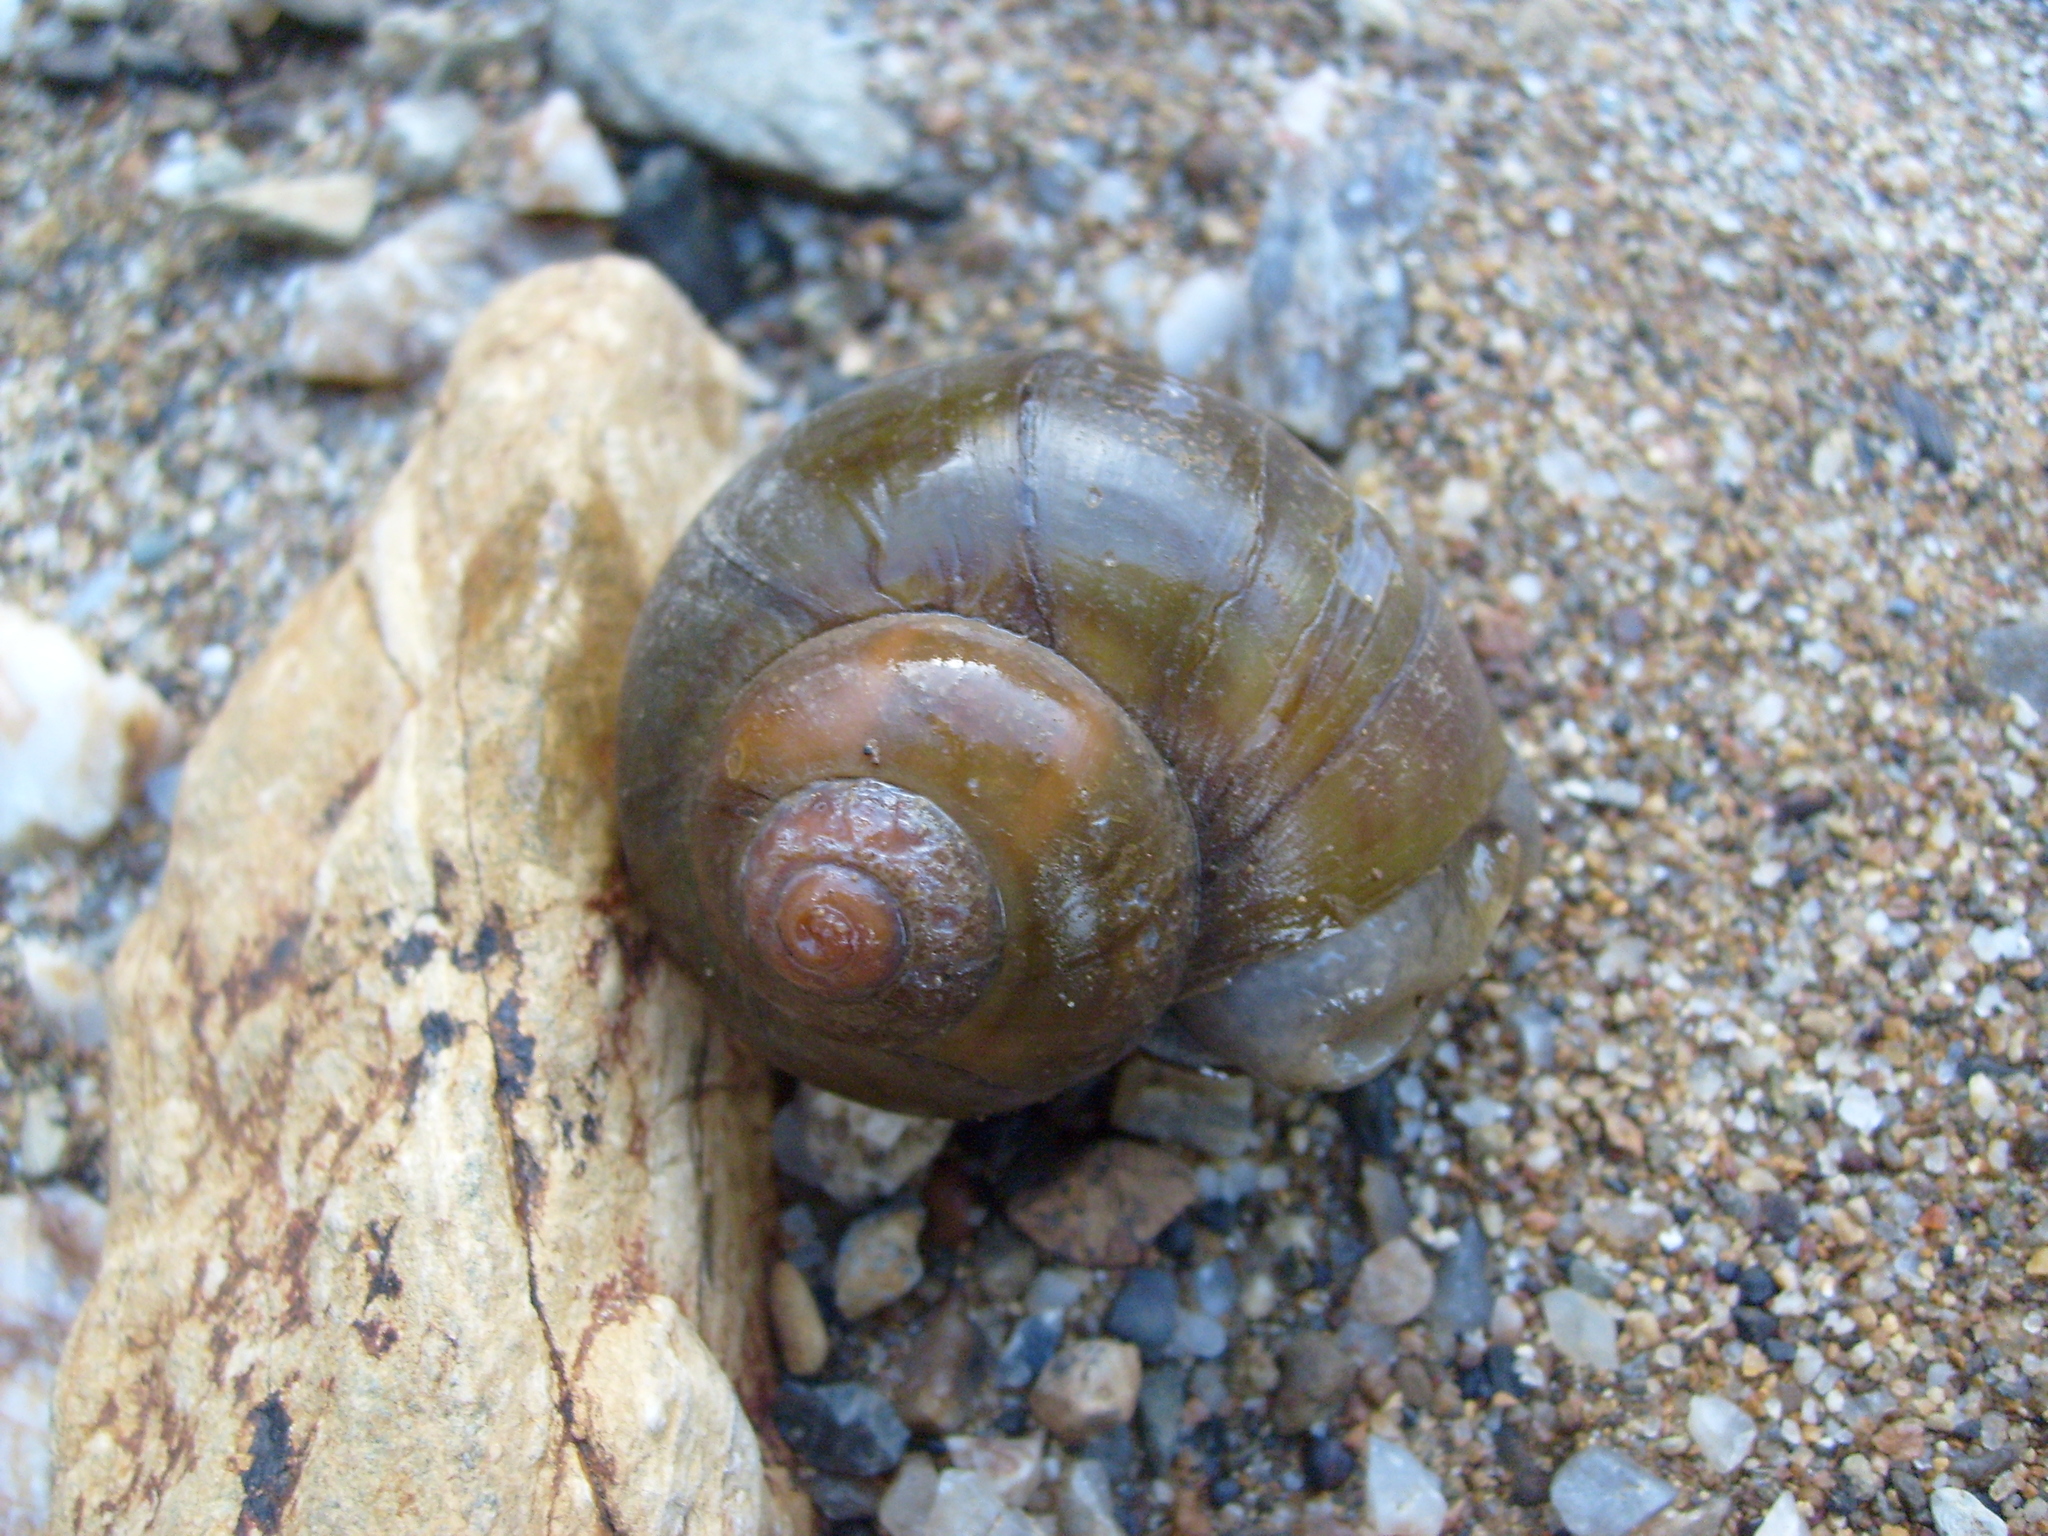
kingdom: Animalia
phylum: Mollusca
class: Gastropoda
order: Architaenioglossa
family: Ampullariidae
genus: Pomacea
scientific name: Pomacea flagellata
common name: Maya apple snail
